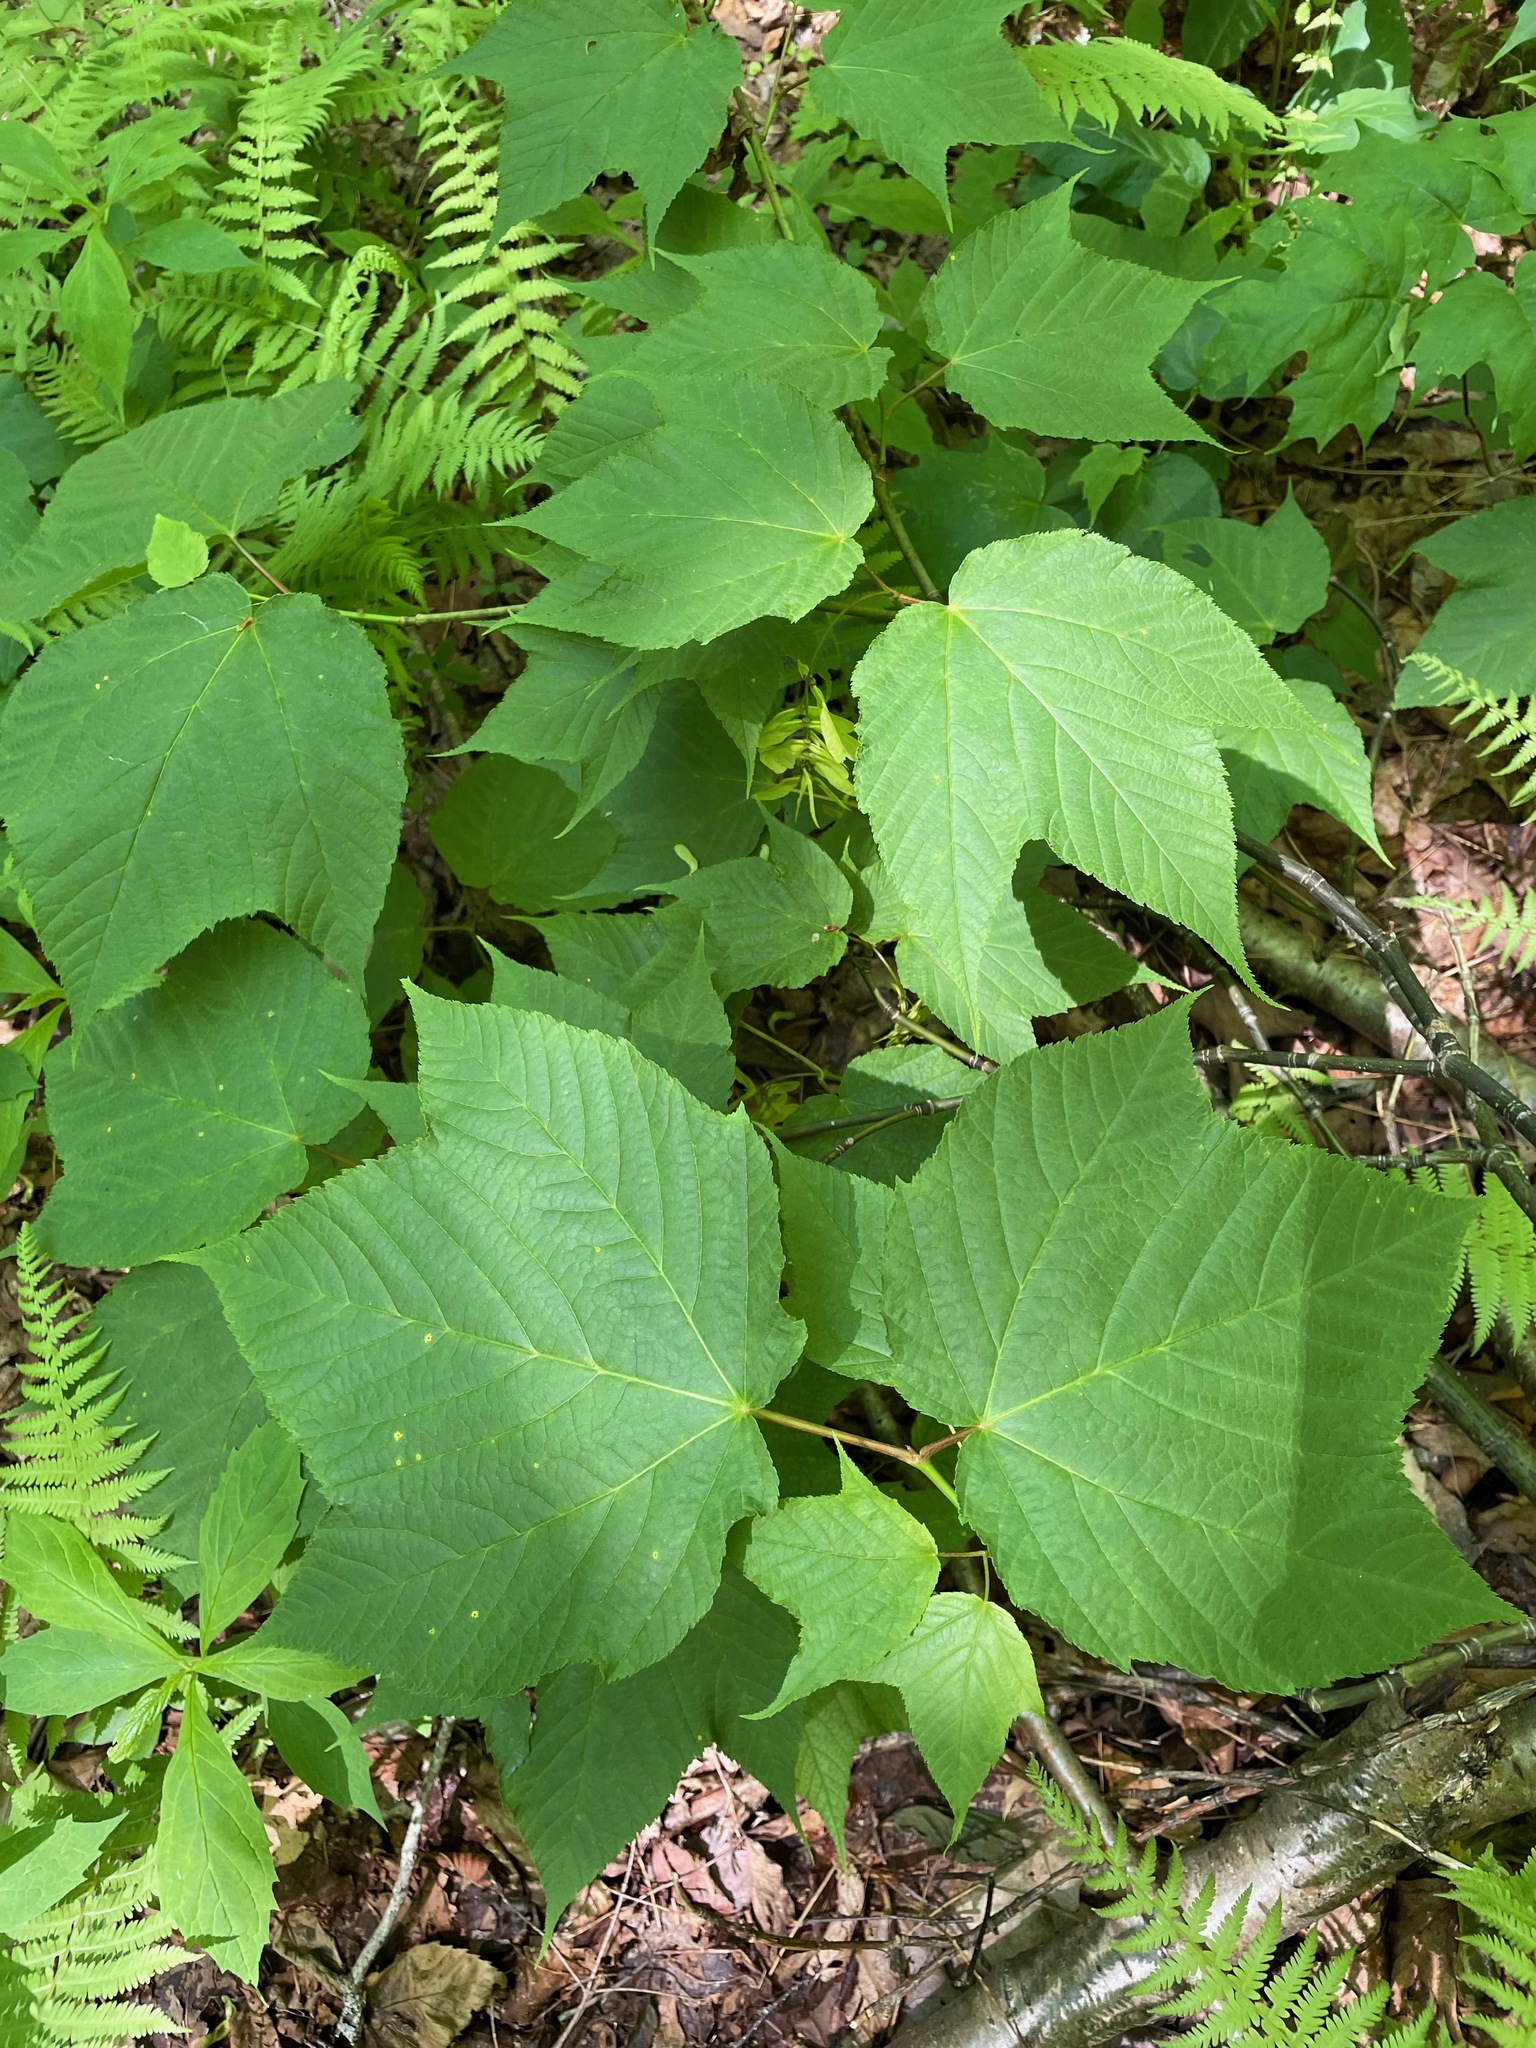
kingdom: Plantae
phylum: Tracheophyta
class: Magnoliopsida
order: Sapindales
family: Sapindaceae
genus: Acer
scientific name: Acer pensylvanicum
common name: Moosewood
